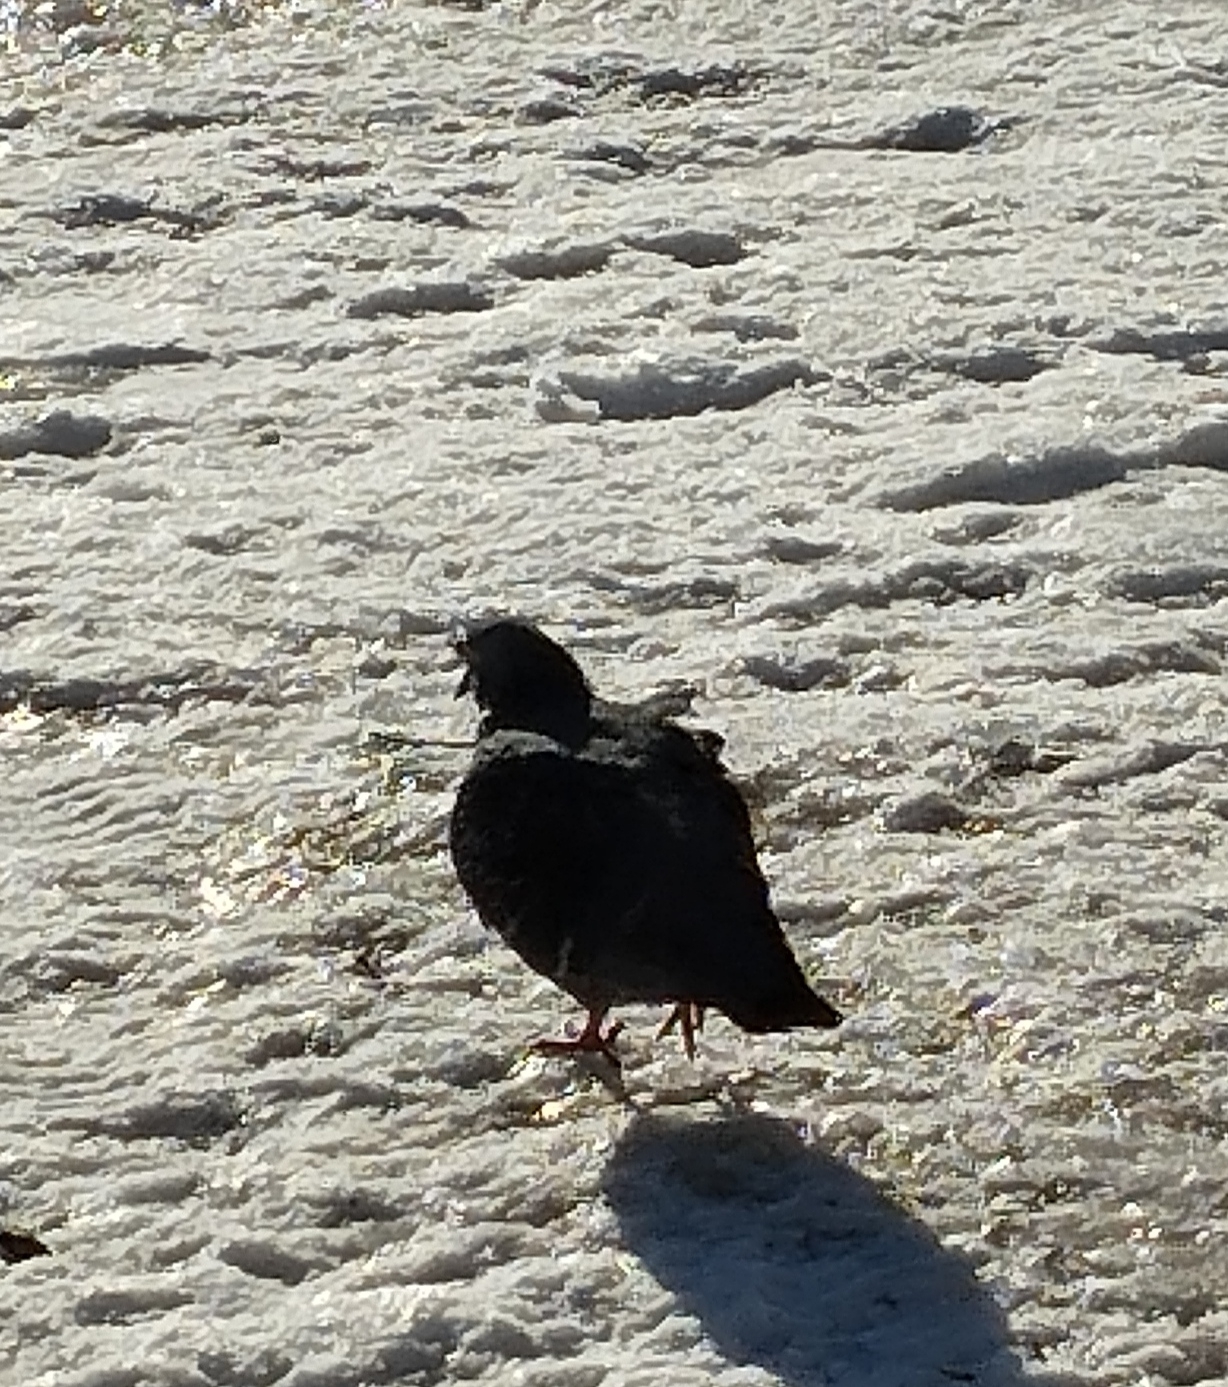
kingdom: Animalia
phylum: Chordata
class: Aves
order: Columbiformes
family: Columbidae
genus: Columba
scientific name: Columba livia
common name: Rock pigeon
